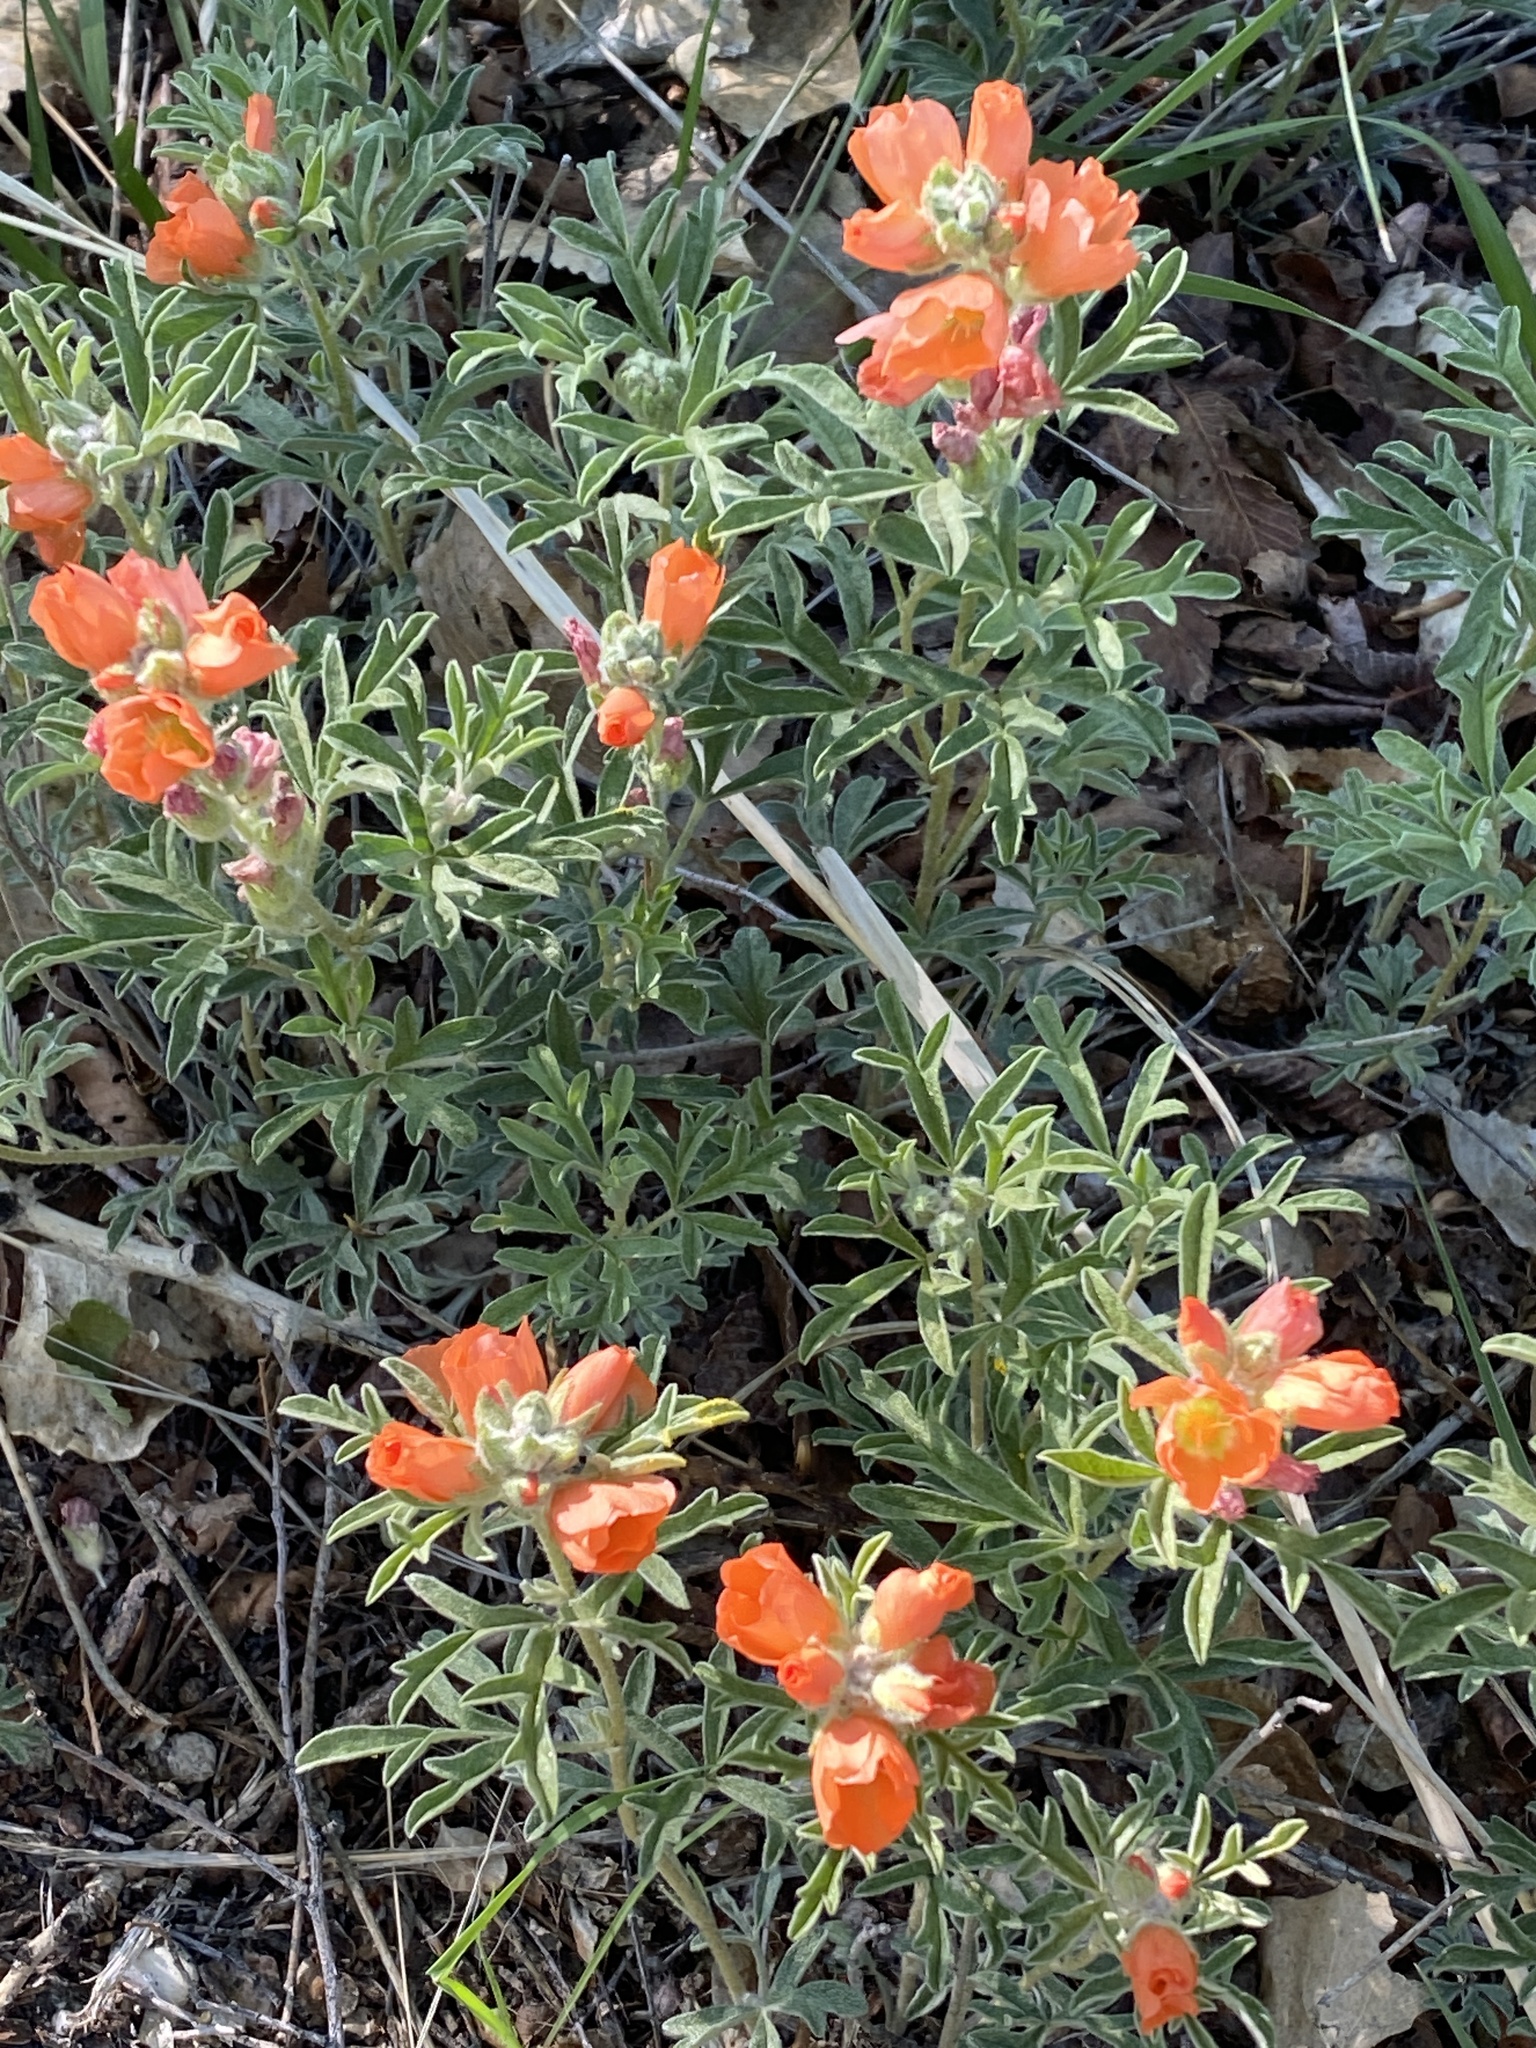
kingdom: Plantae
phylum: Tracheophyta
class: Magnoliopsida
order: Malvales
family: Malvaceae
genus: Sphaeralcea
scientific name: Sphaeralcea coccinea
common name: Moss-rose
